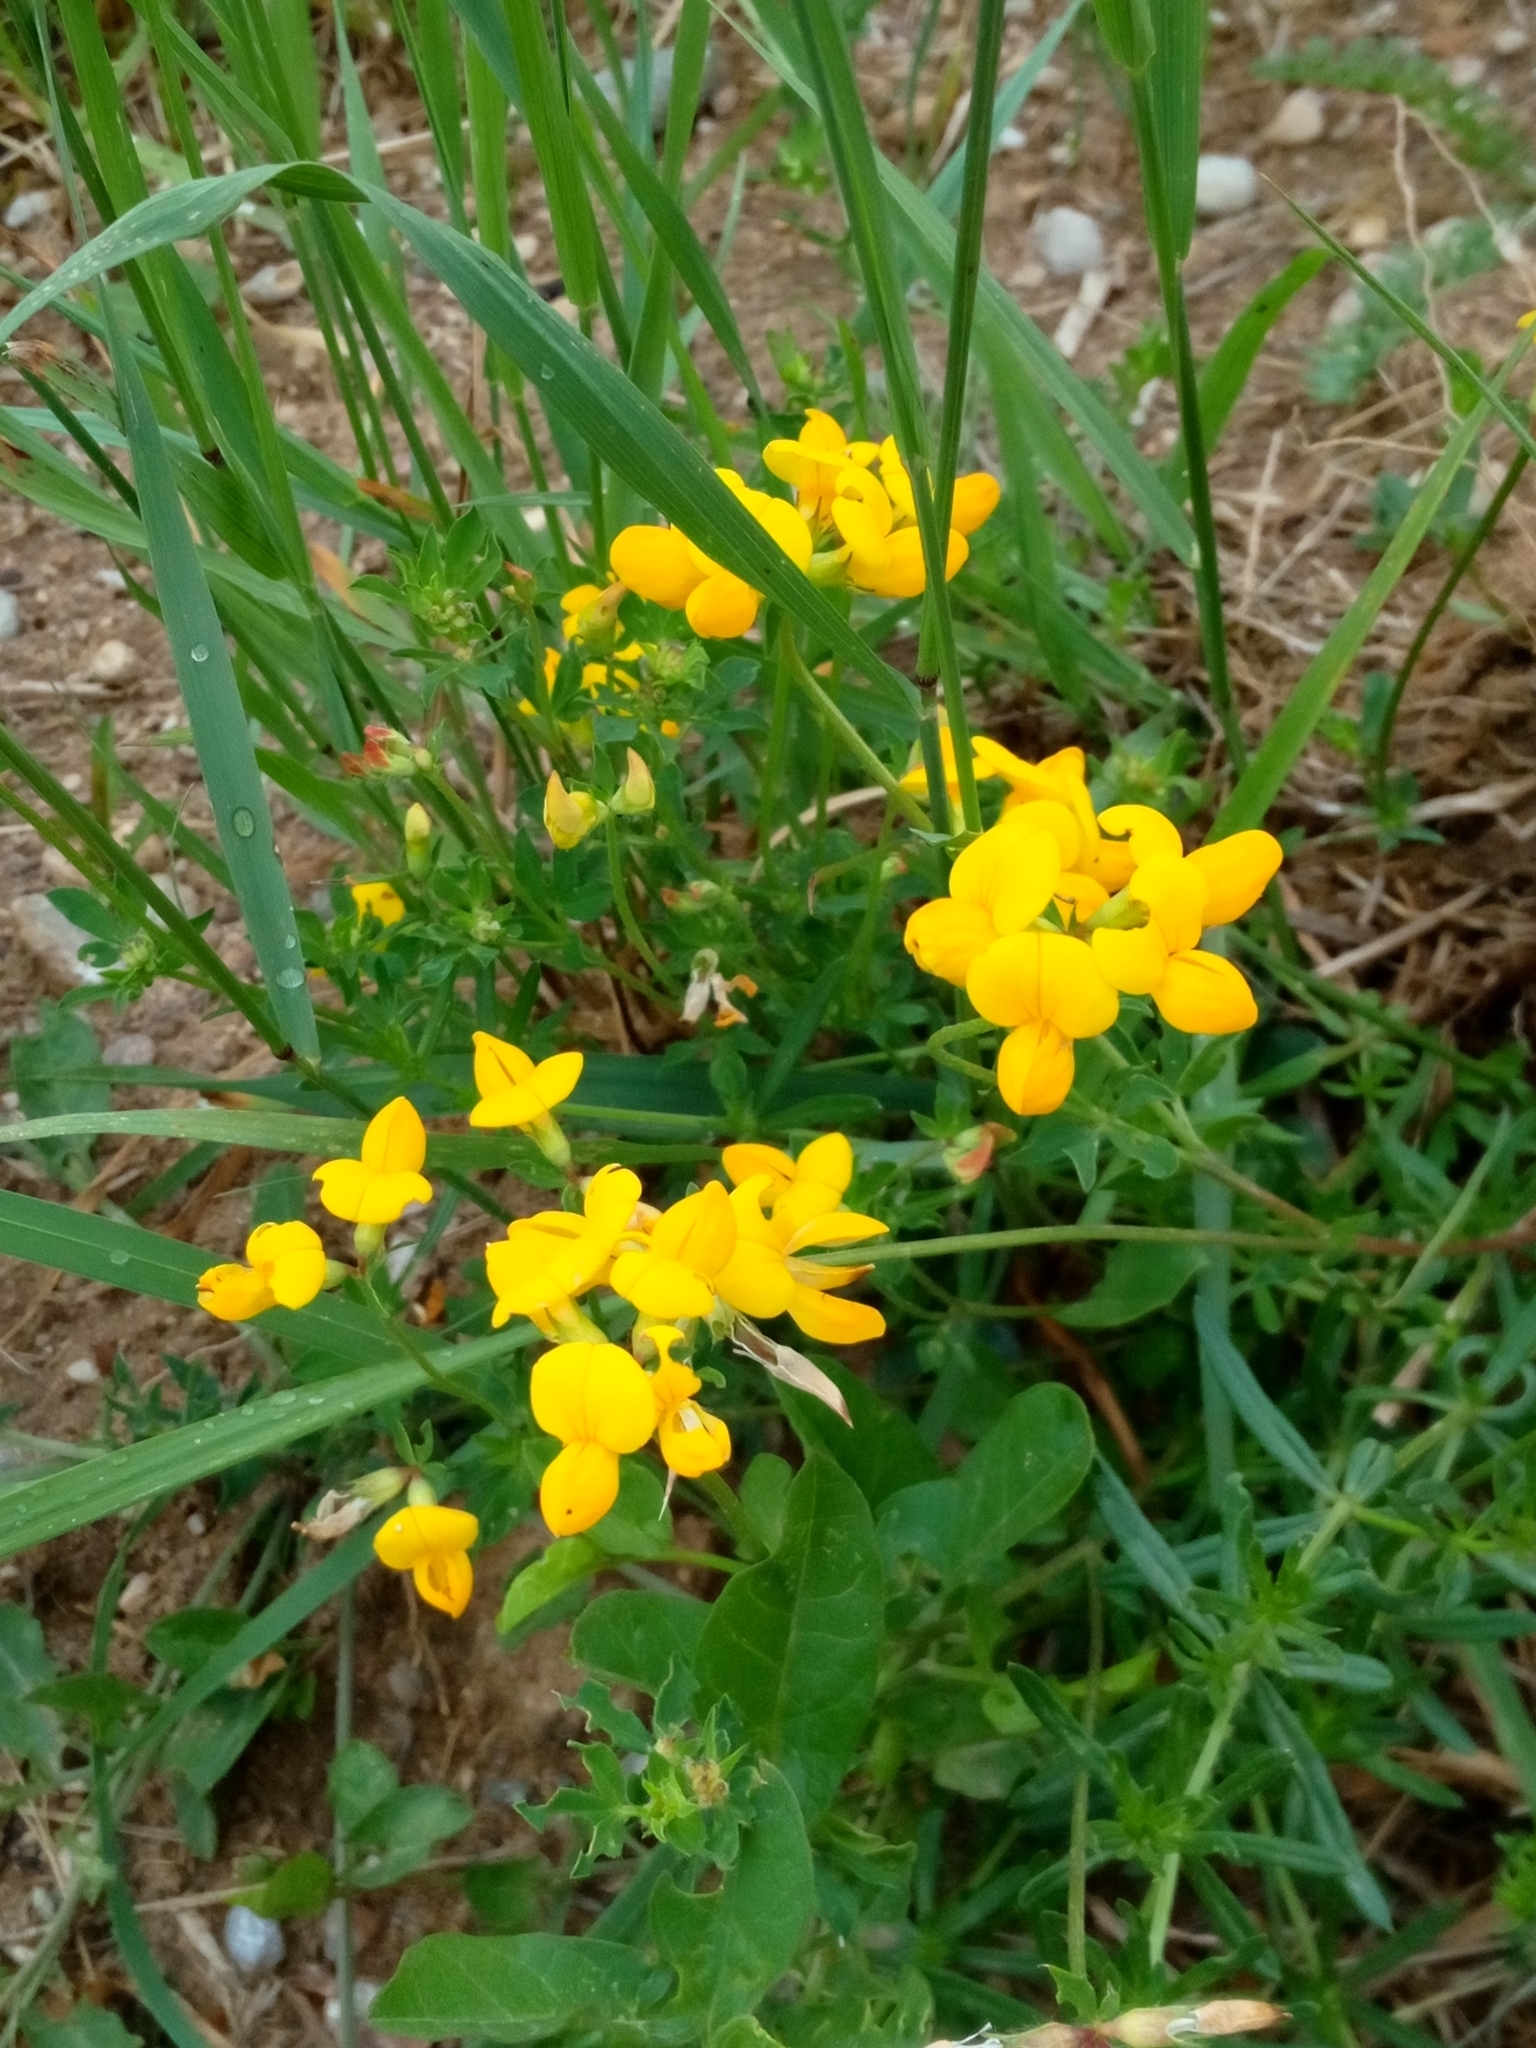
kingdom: Plantae
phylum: Tracheophyta
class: Magnoliopsida
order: Fabales
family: Fabaceae
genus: Lotus
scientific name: Lotus corniculatus
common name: Common bird's-foot-trefoil
